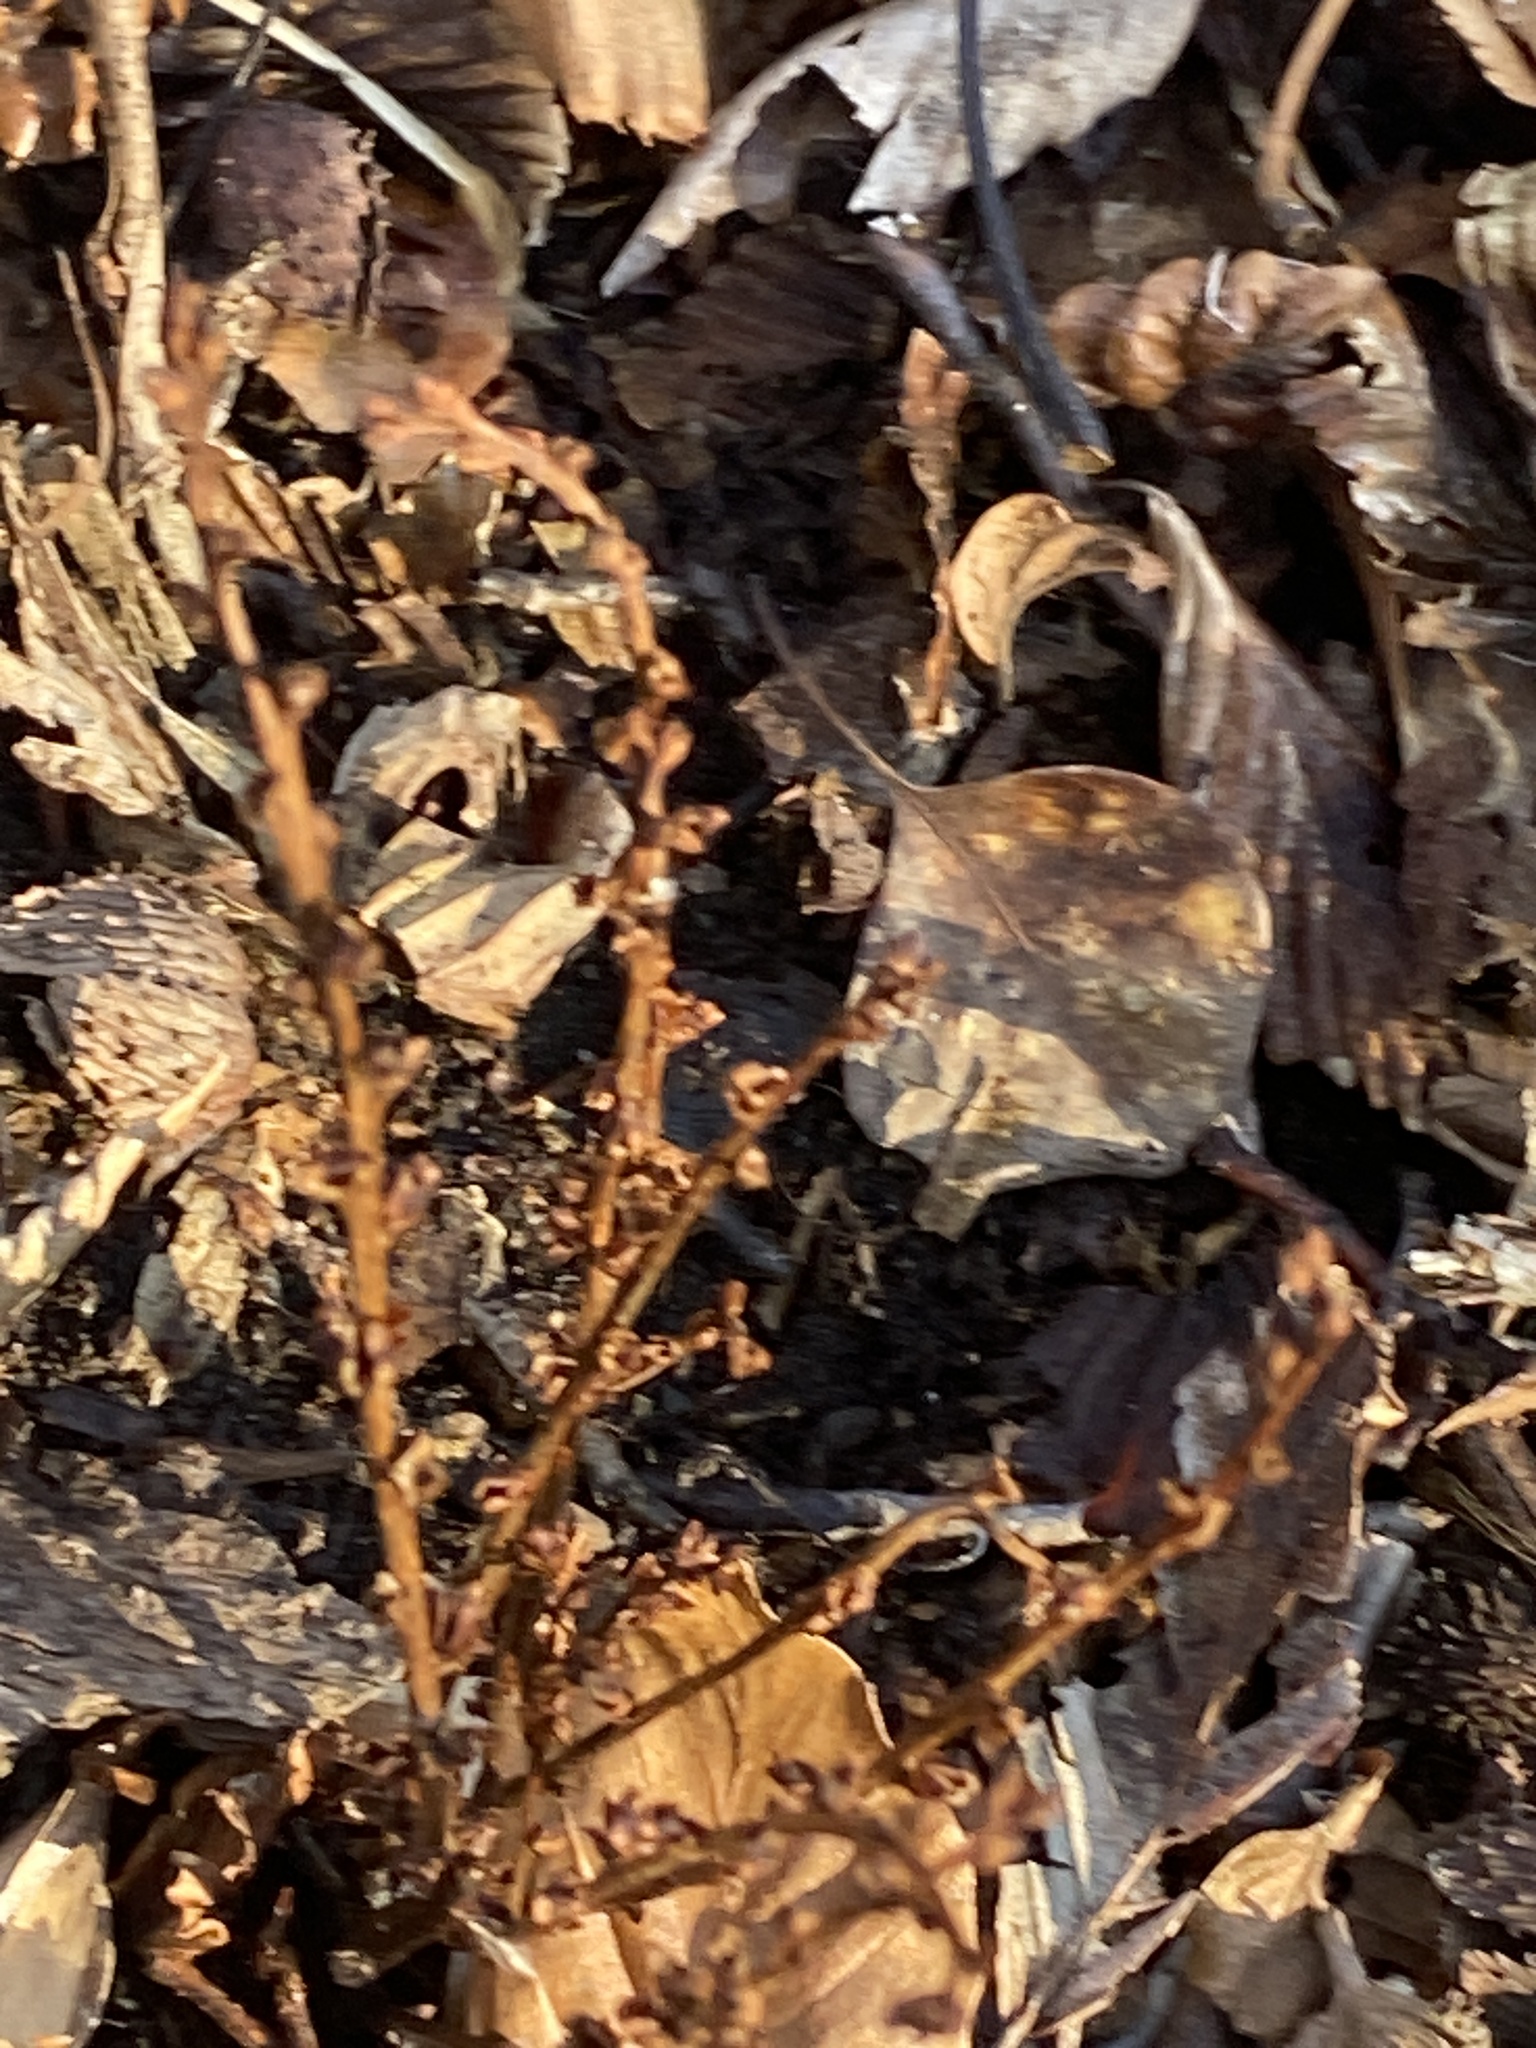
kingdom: Plantae
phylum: Tracheophyta
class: Magnoliopsida
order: Lamiales
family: Orobanchaceae
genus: Epifagus
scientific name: Epifagus virginiana
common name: Beechdrops
